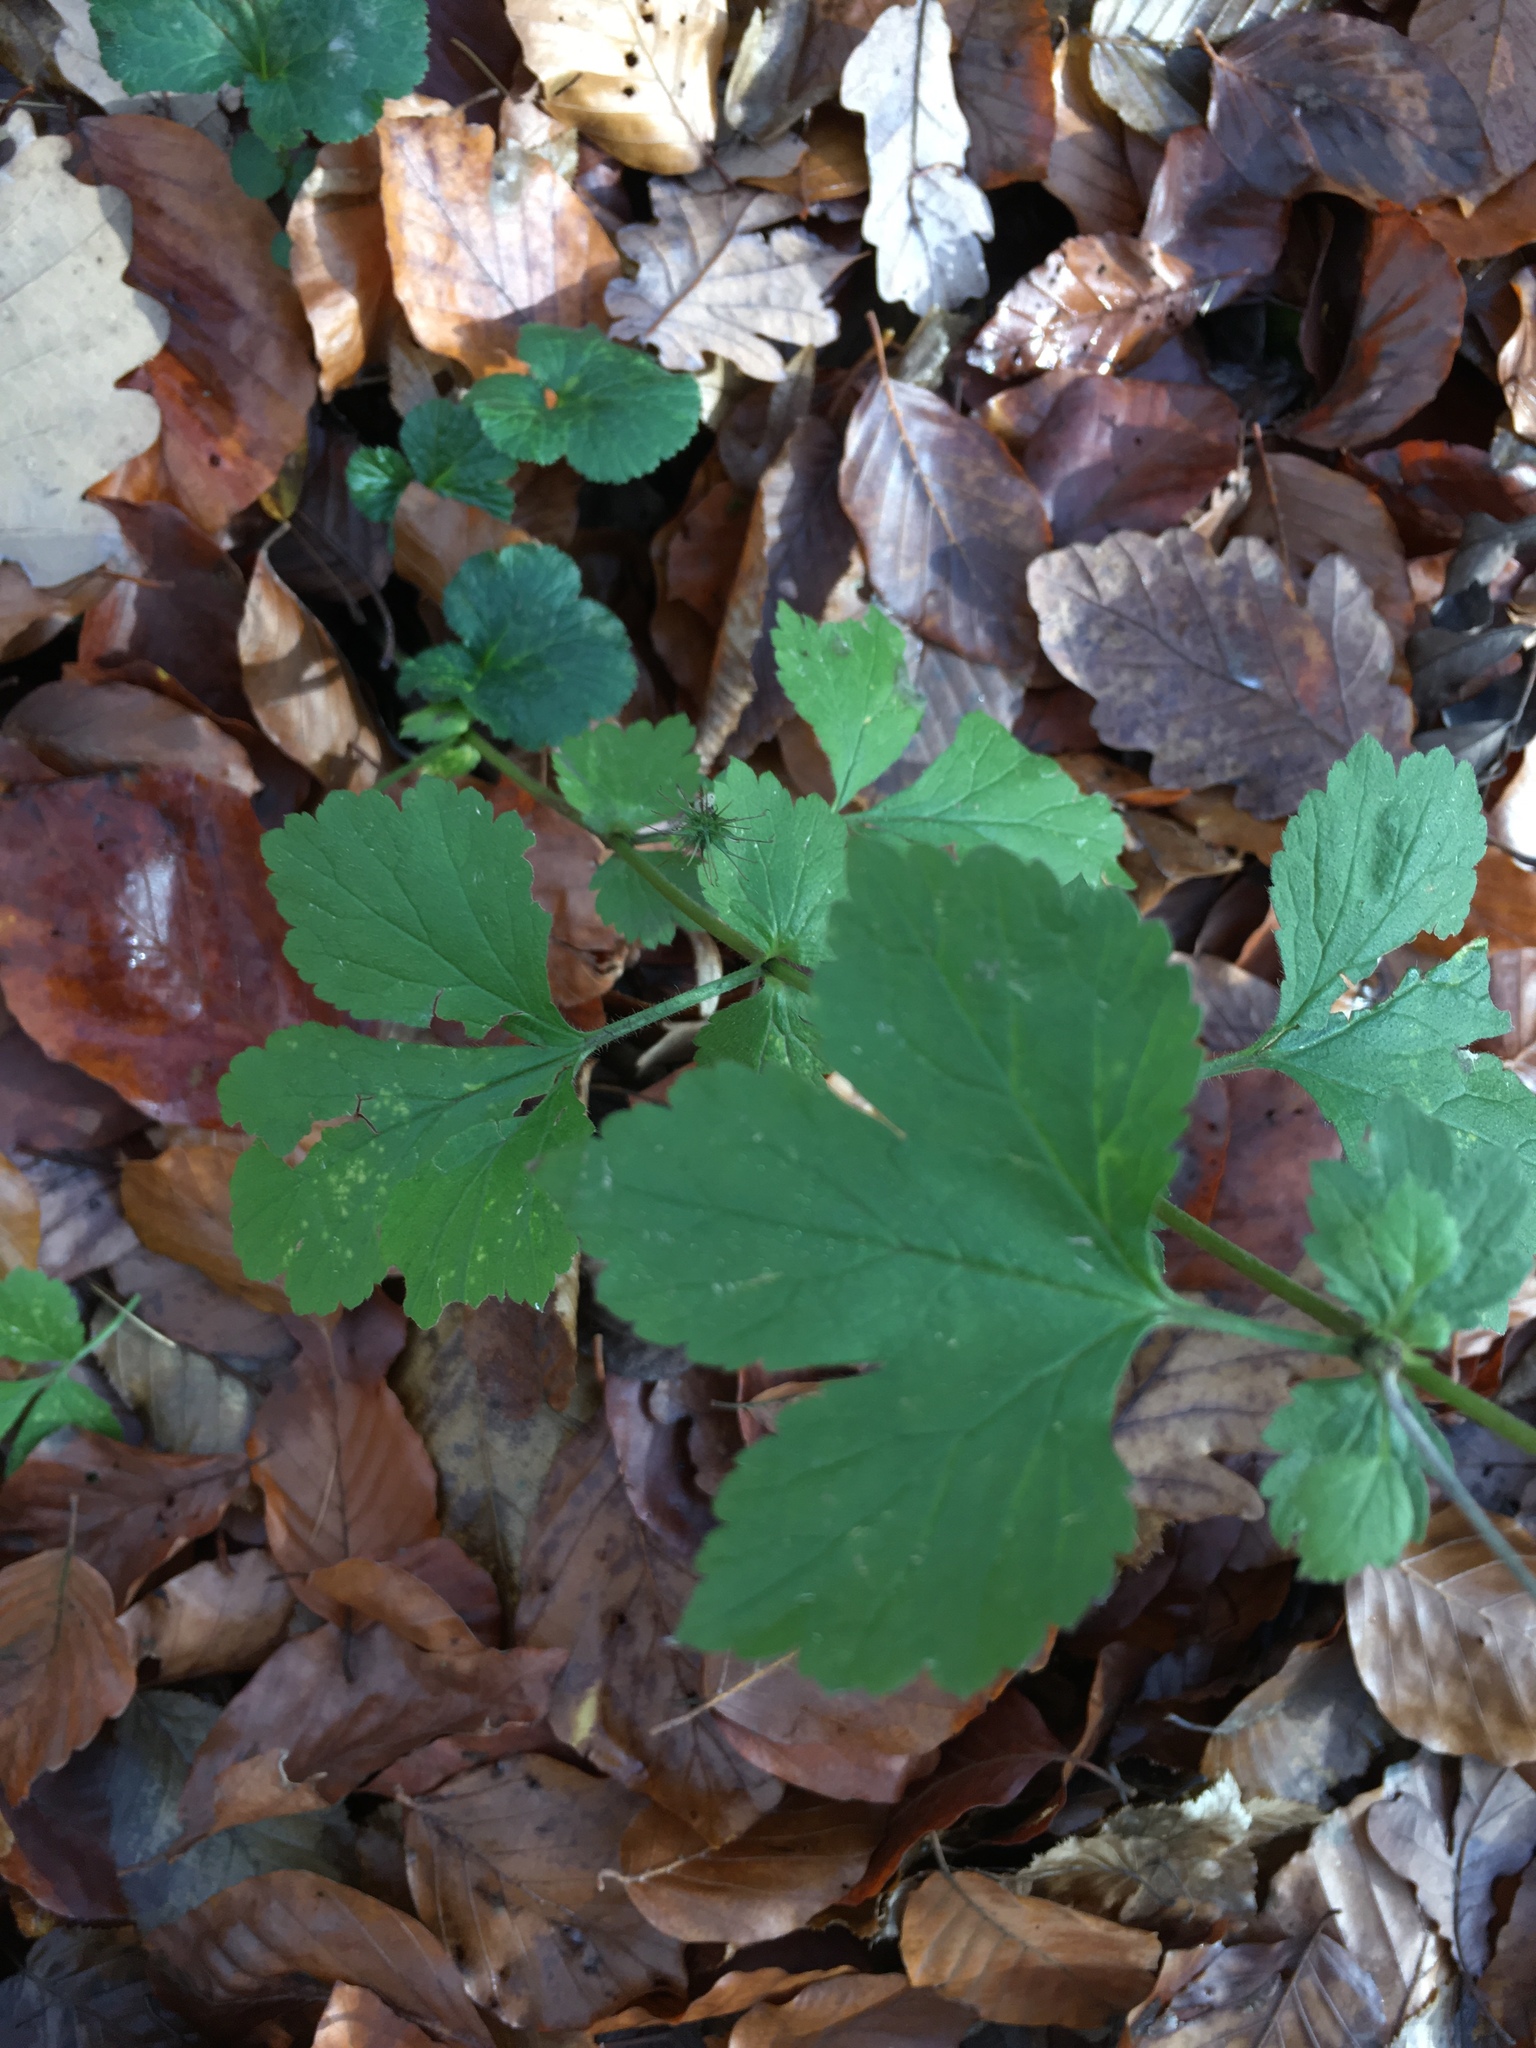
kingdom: Plantae
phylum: Tracheophyta
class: Magnoliopsida
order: Rosales
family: Rosaceae
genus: Geum
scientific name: Geum urbanum
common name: Wood avens
